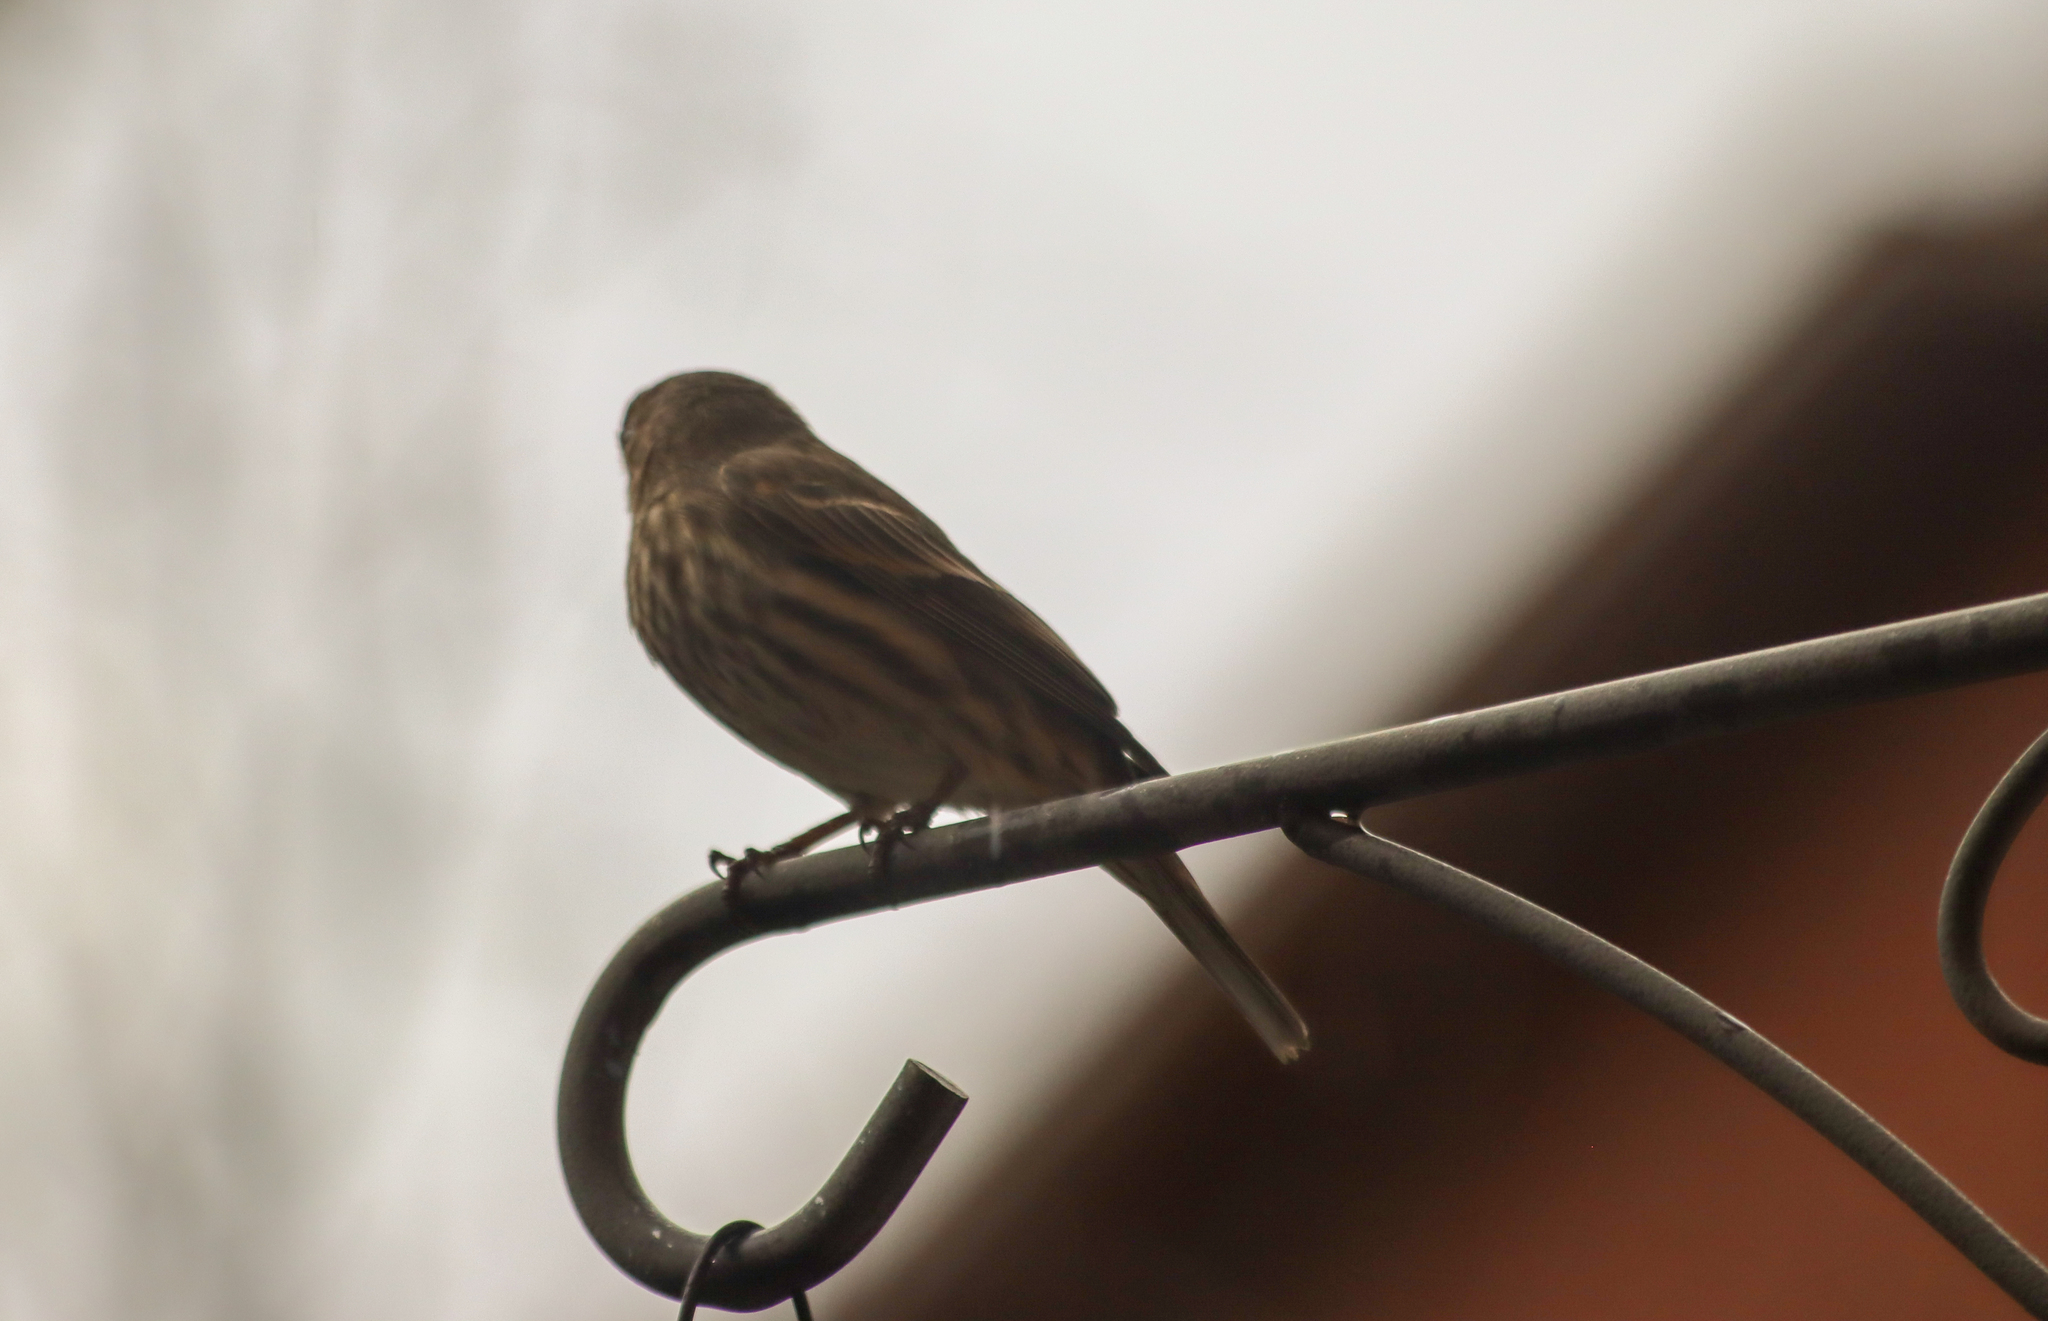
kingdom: Animalia
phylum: Chordata
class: Aves
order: Passeriformes
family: Fringillidae
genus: Haemorhous
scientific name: Haemorhous mexicanus
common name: House finch
